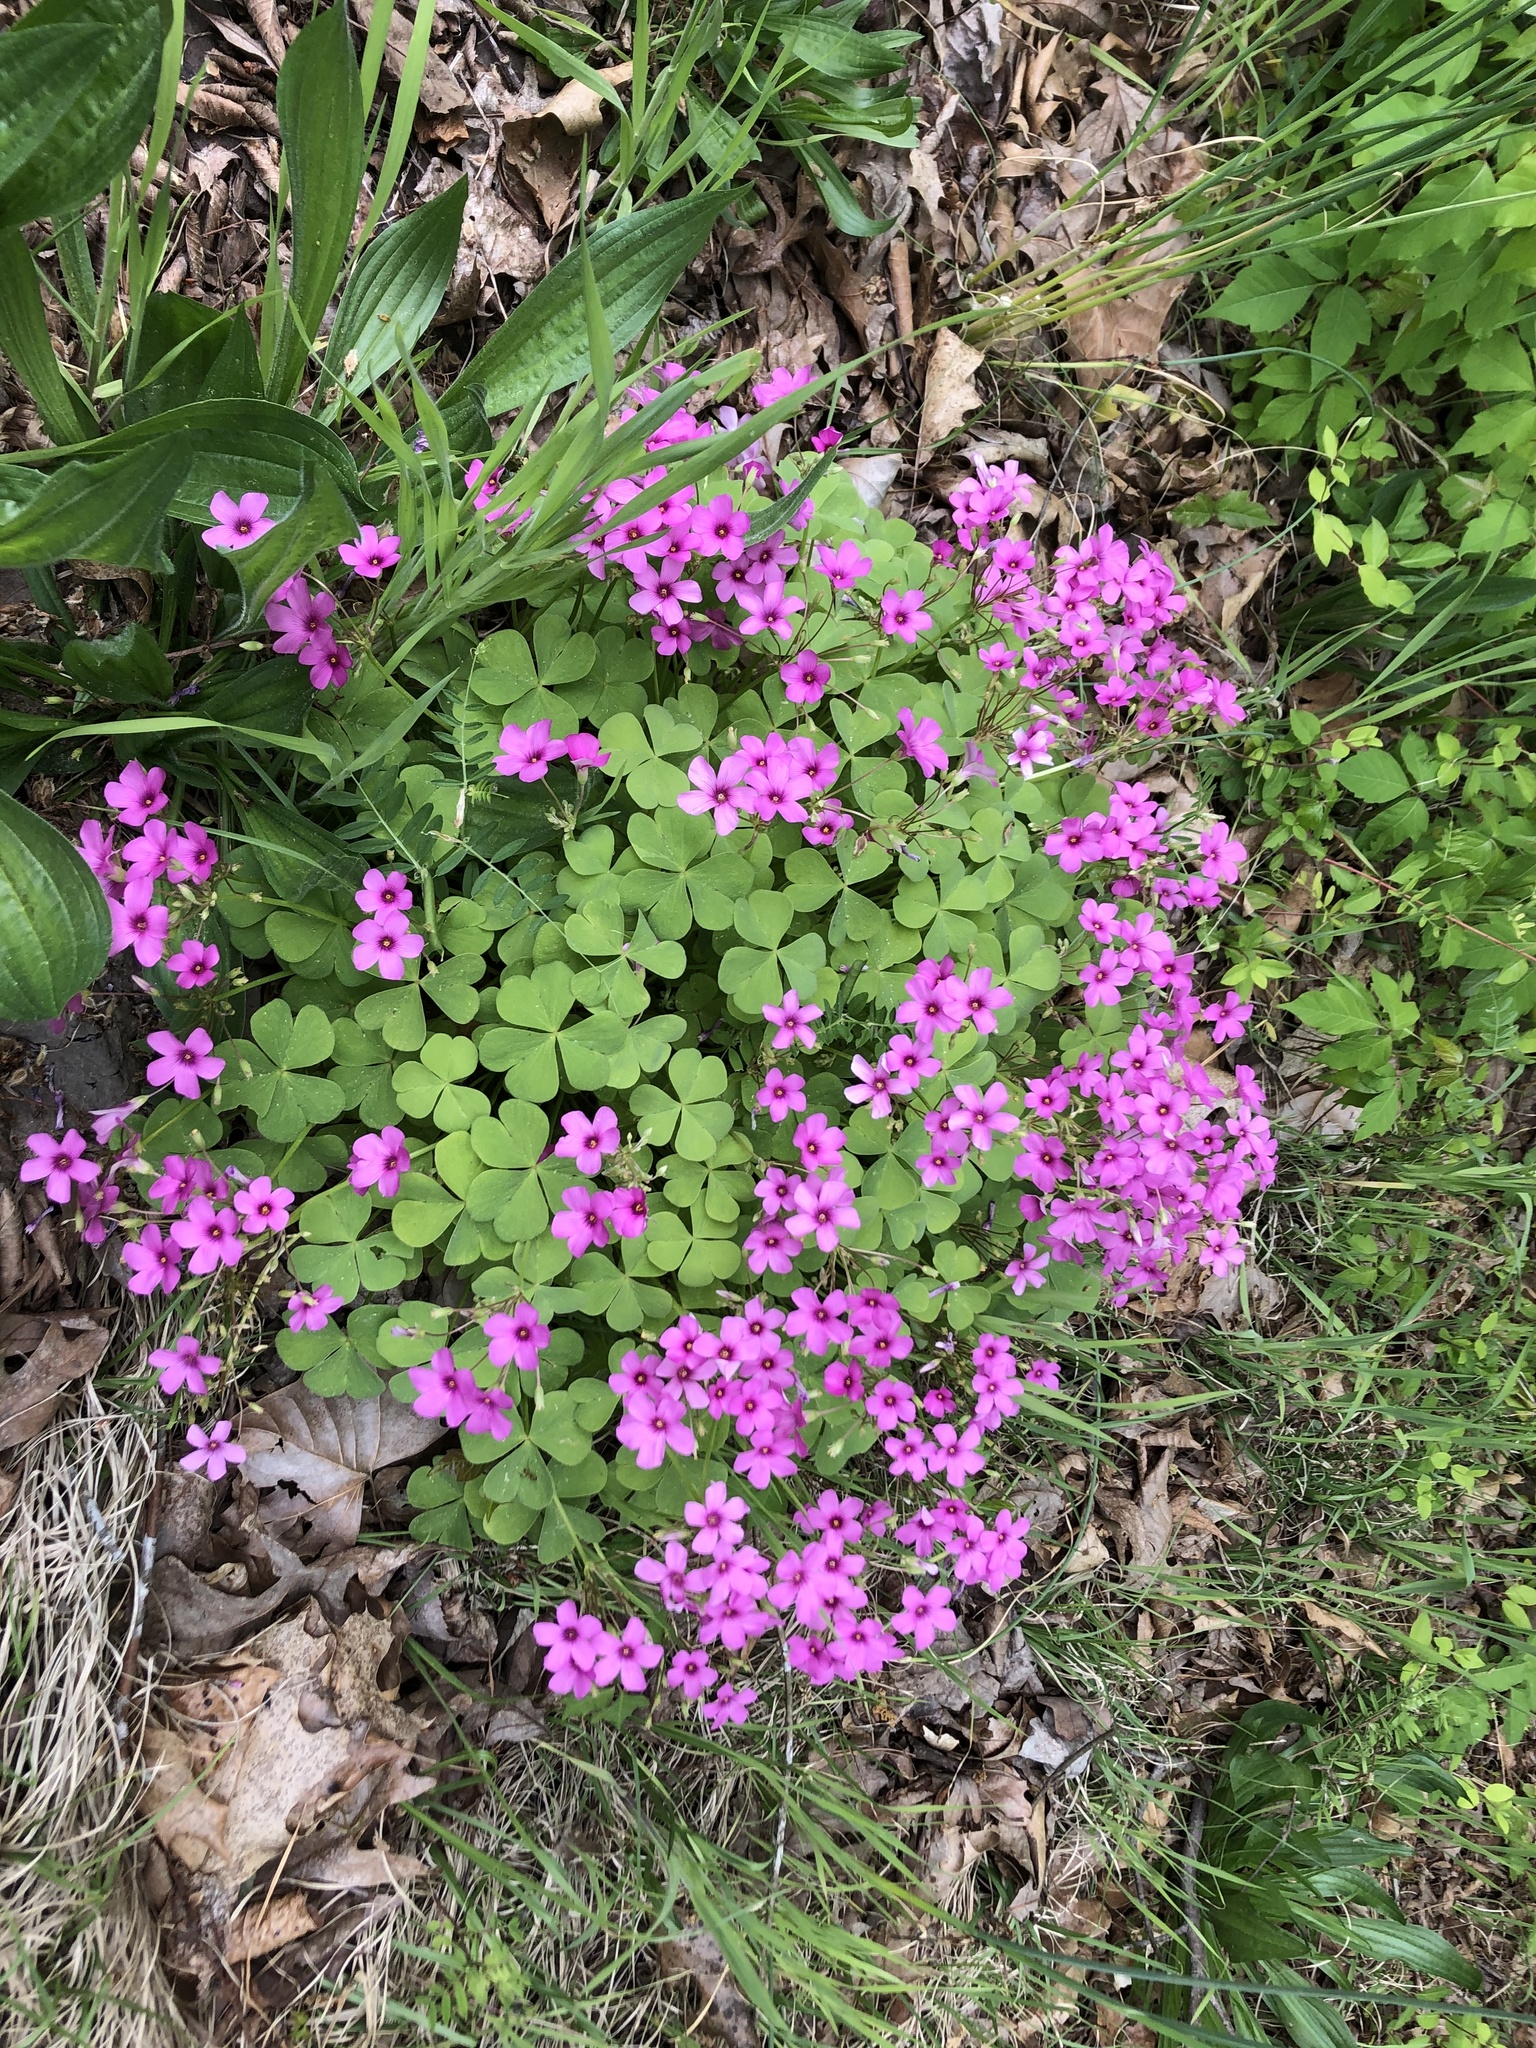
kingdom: Plantae
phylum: Tracheophyta
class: Magnoliopsida
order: Oxalidales
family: Oxalidaceae
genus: Oxalis
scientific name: Oxalis articulata
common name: Pink-sorrel
